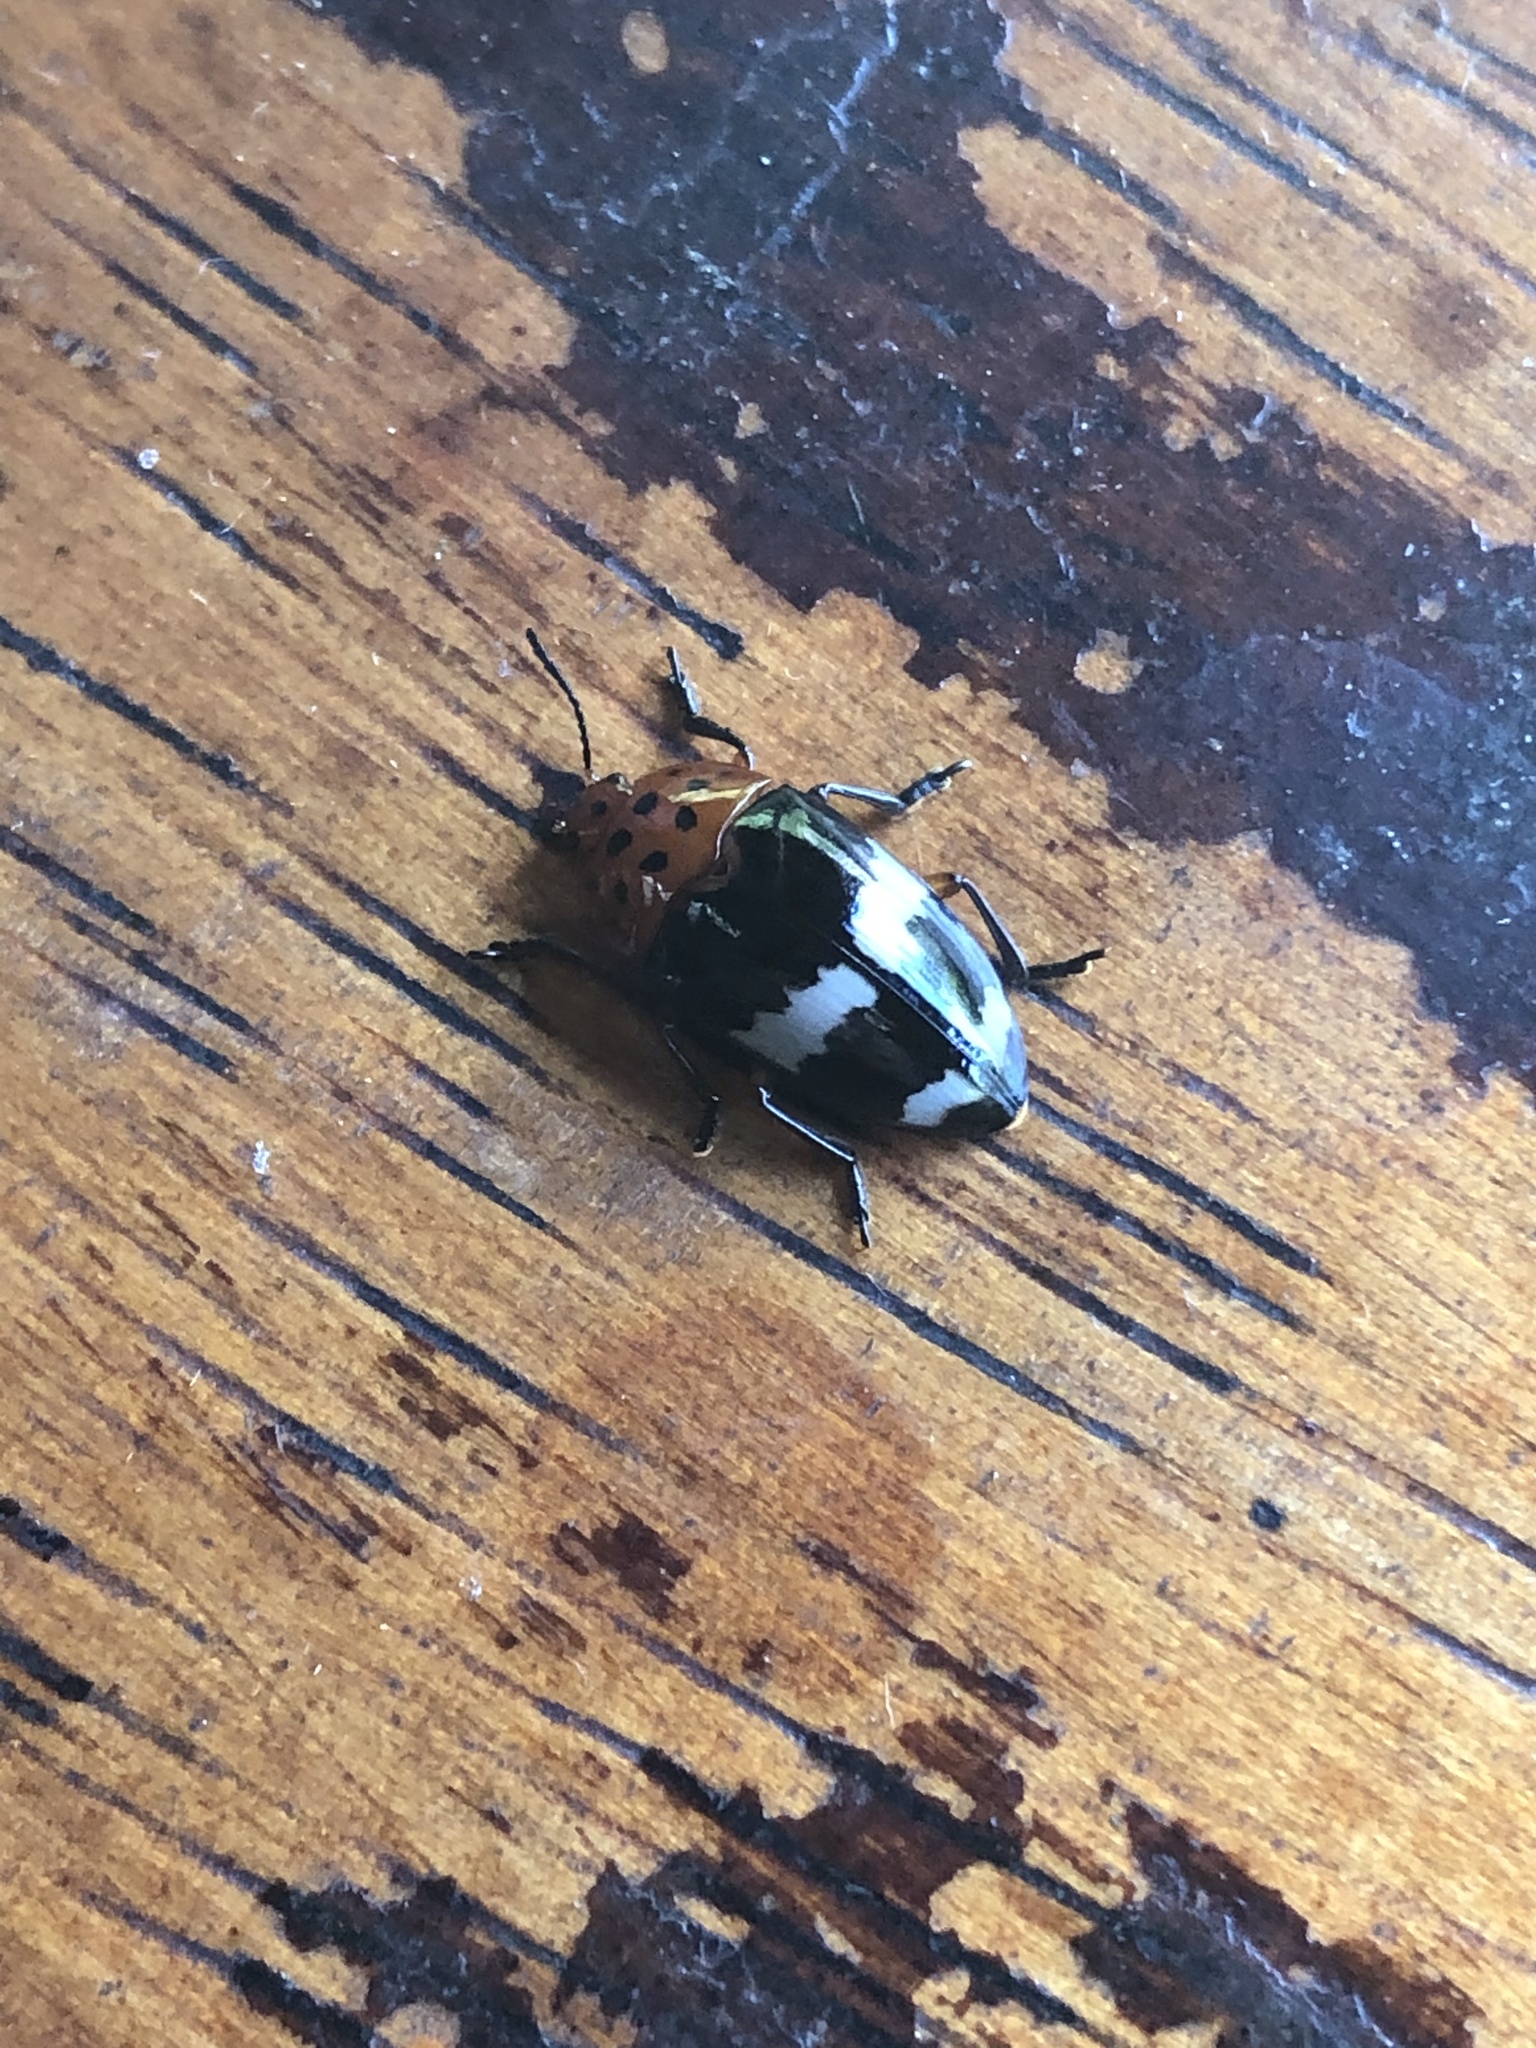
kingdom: Animalia
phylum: Arthropoda
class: Insecta
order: Coleoptera
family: Erotylidae
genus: Iphiclus
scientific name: Iphiclus
